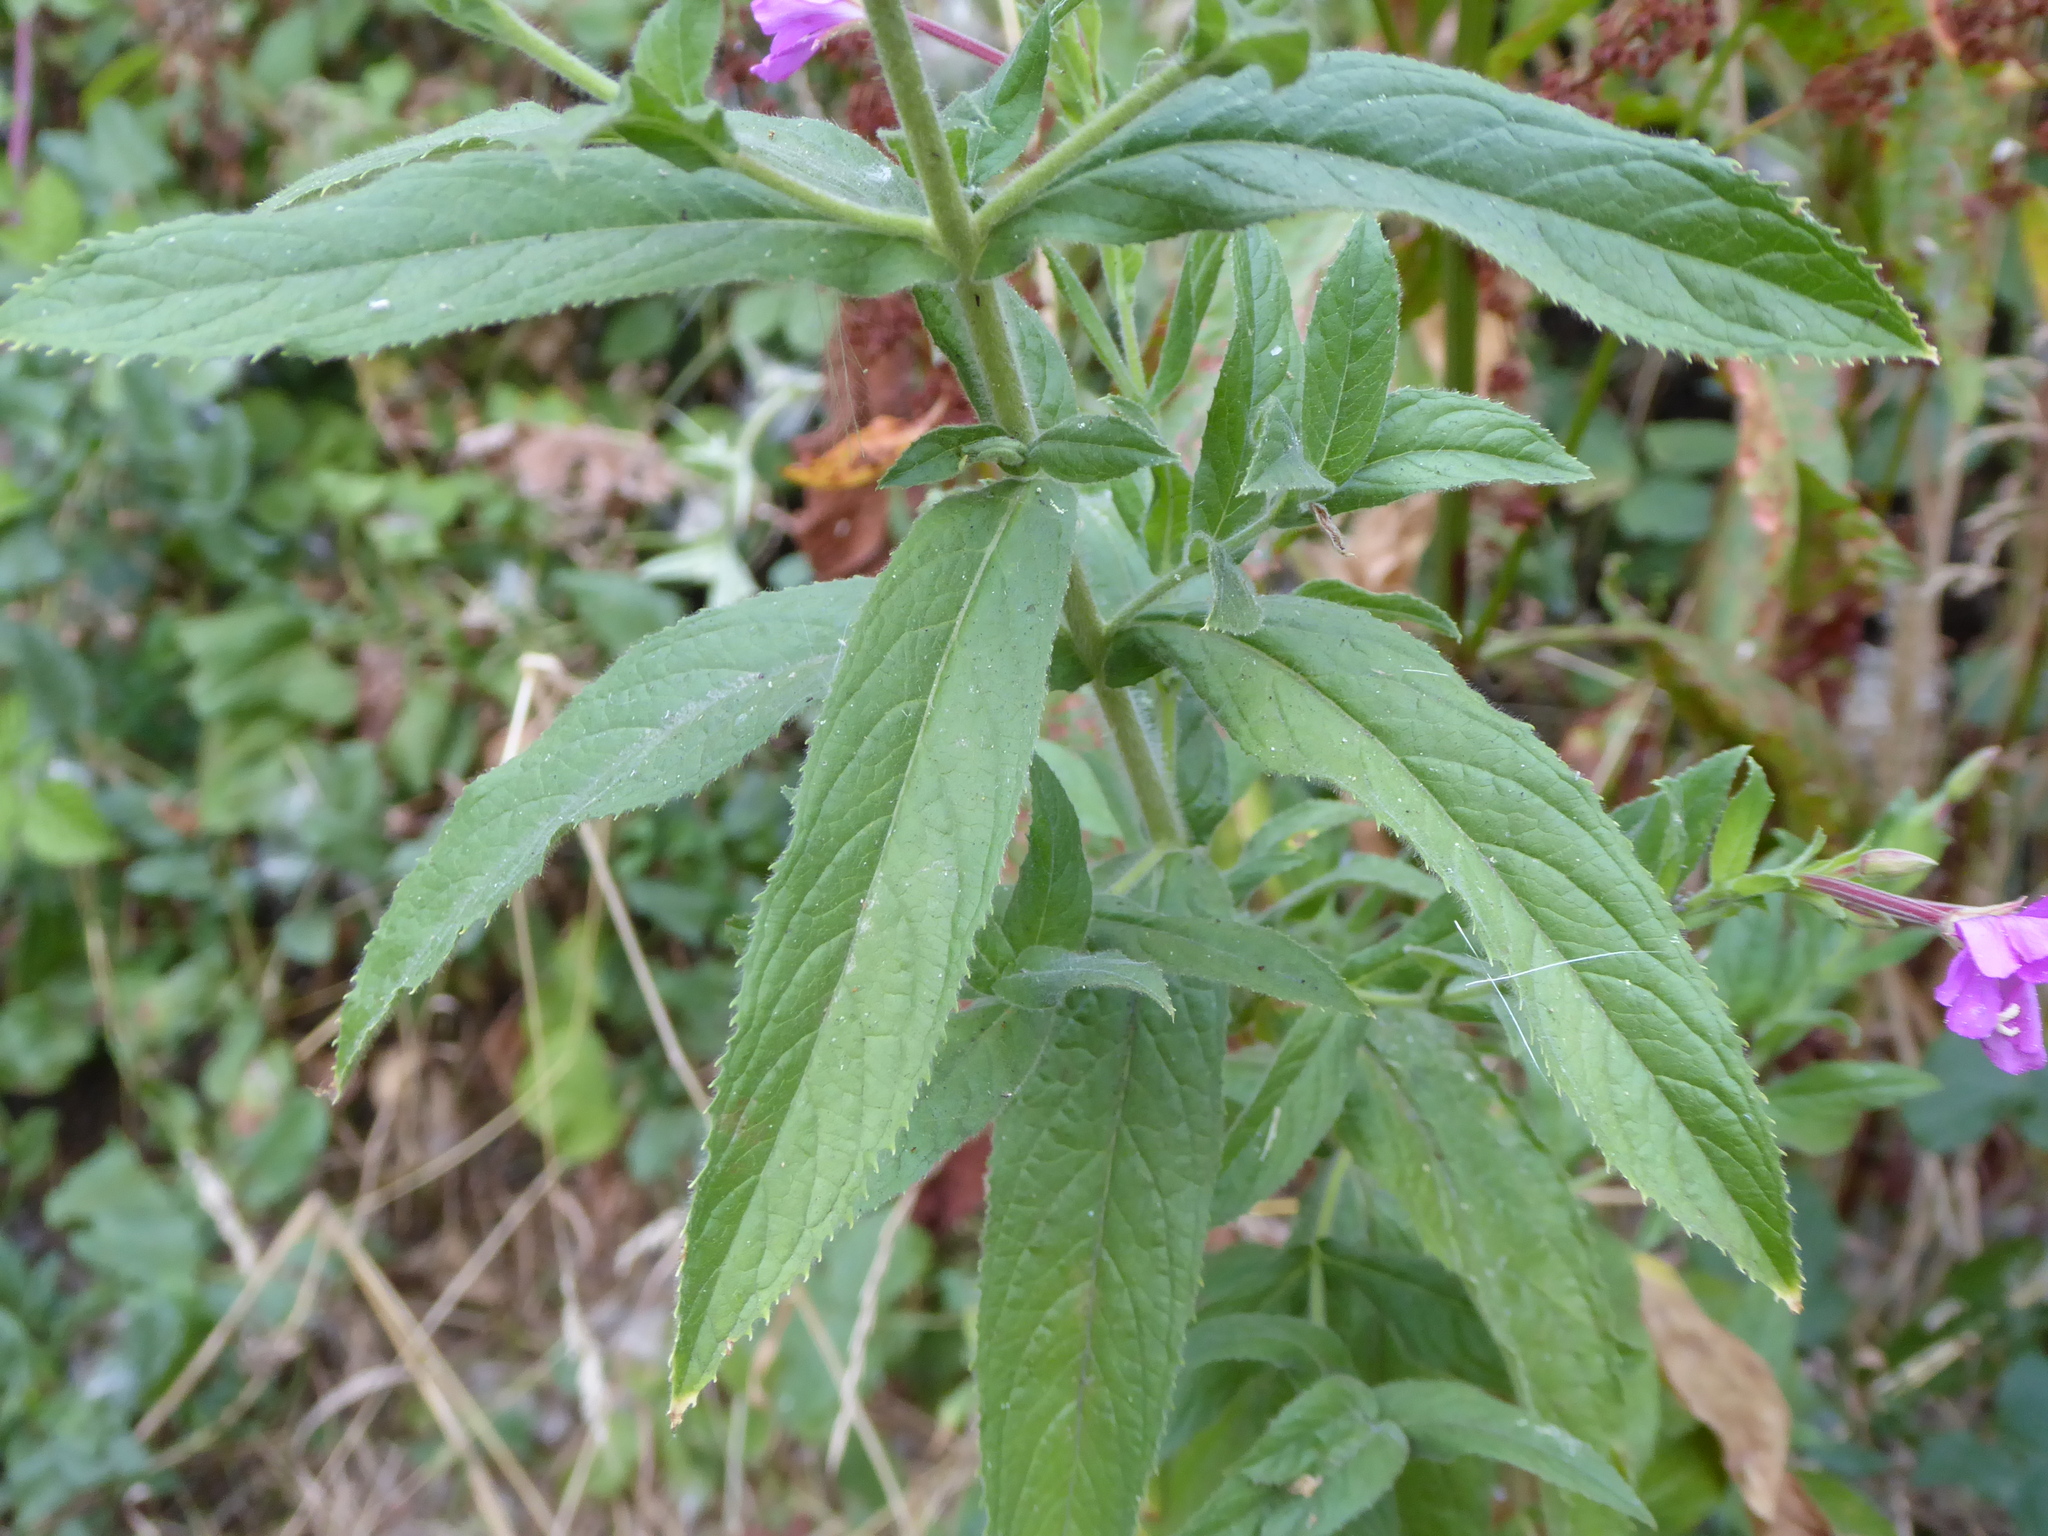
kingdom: Plantae
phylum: Tracheophyta
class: Magnoliopsida
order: Myrtales
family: Onagraceae
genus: Epilobium
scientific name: Epilobium hirsutum
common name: Great willowherb
